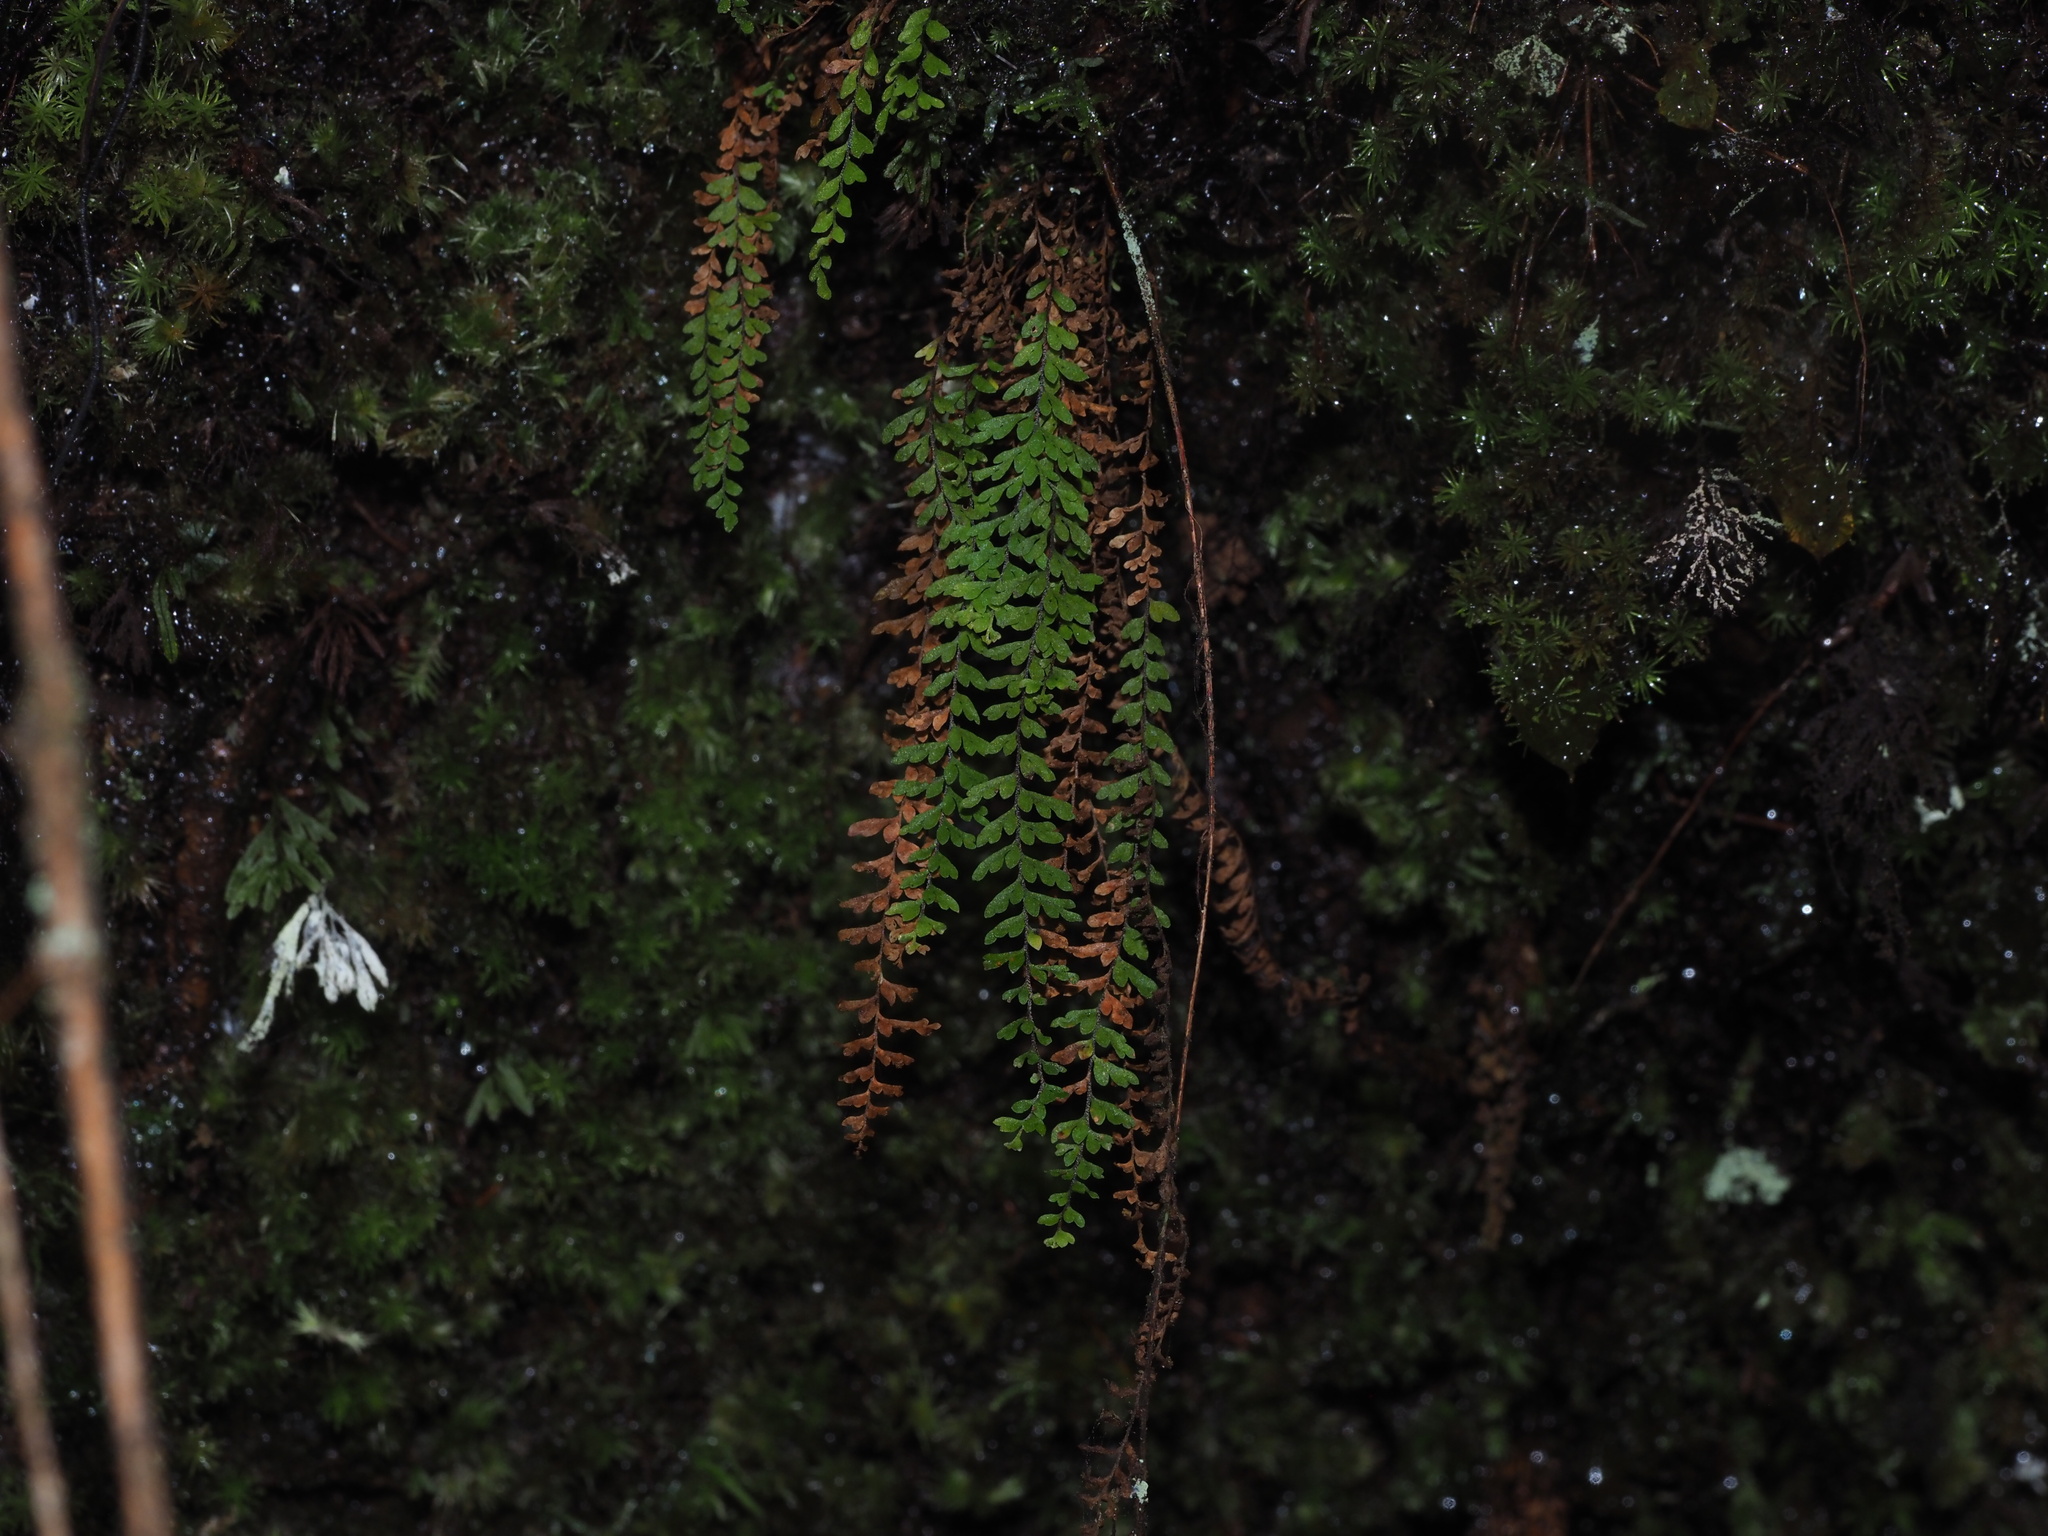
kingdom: Plantae
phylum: Tracheophyta
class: Polypodiopsida
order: Polypodiales
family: Polypodiaceae
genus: Adenophorus
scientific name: Adenophorus hymenophylloides
